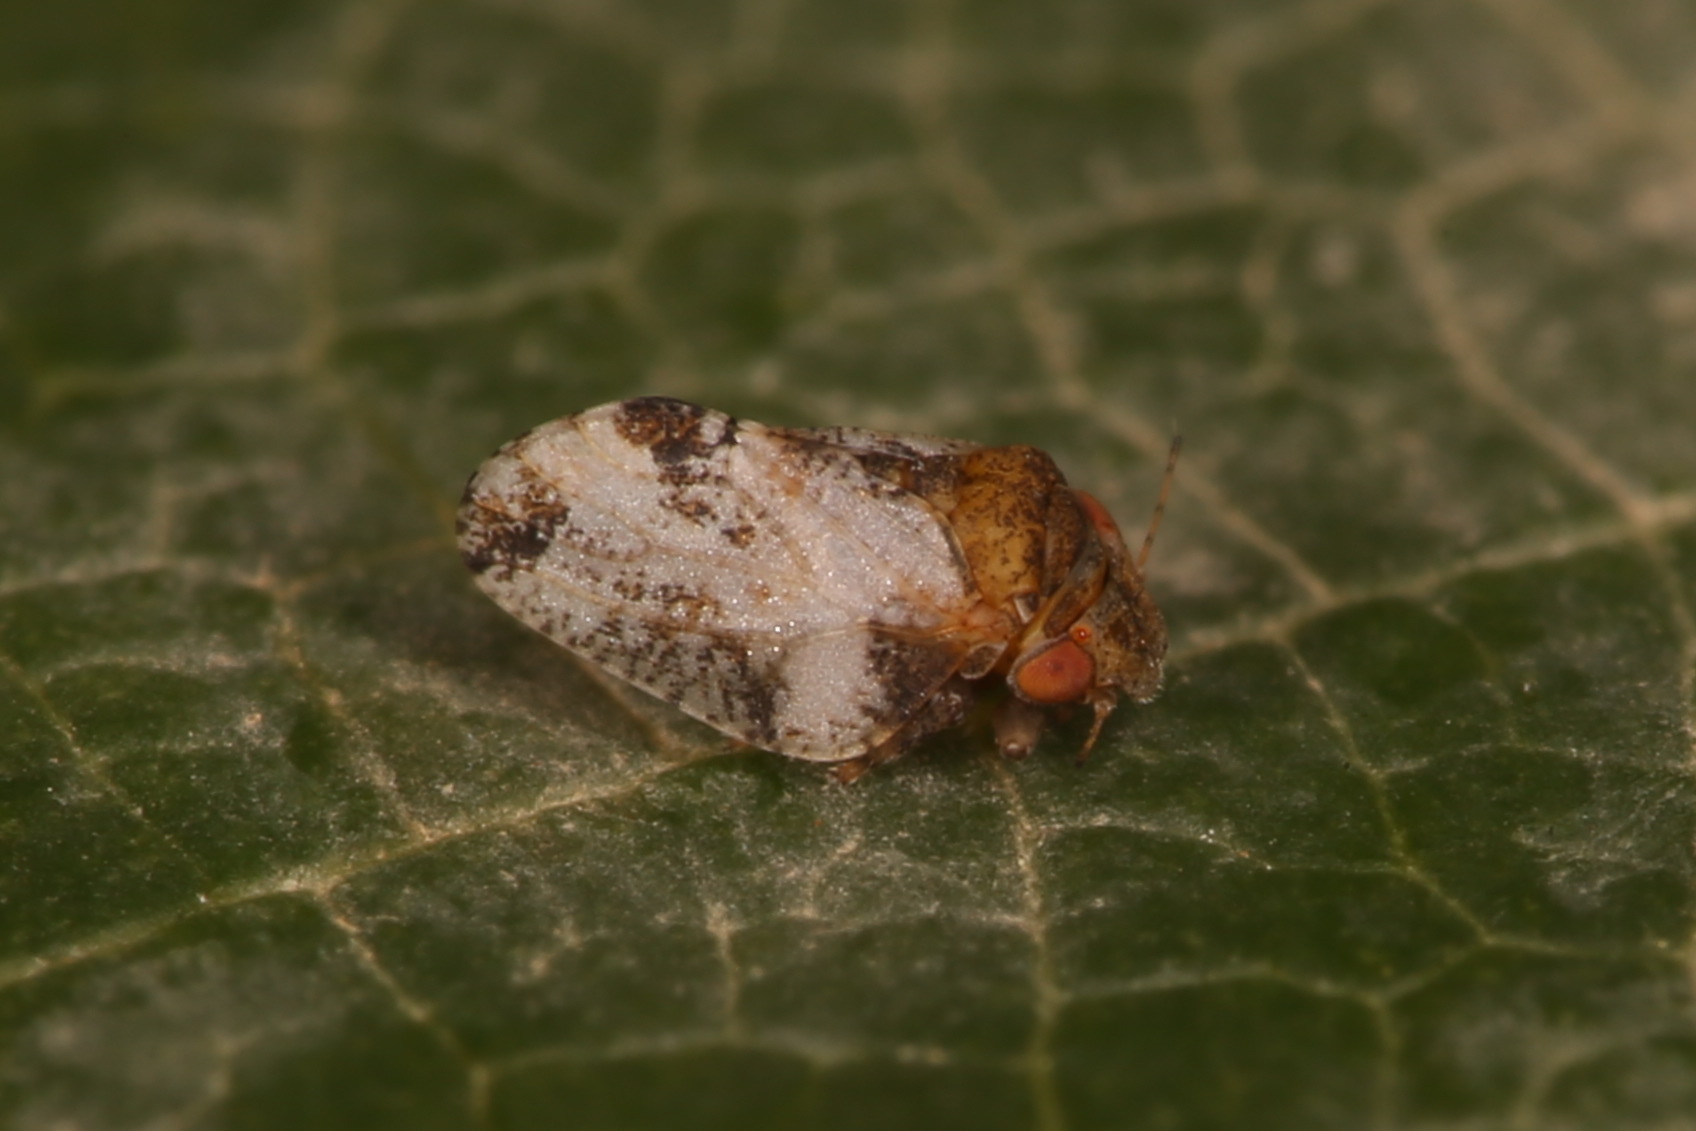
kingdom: Animalia
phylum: Arthropoda
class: Insecta
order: Hemiptera
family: Liviidae
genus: Euphyllura
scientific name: Euphyllura phillyreae
